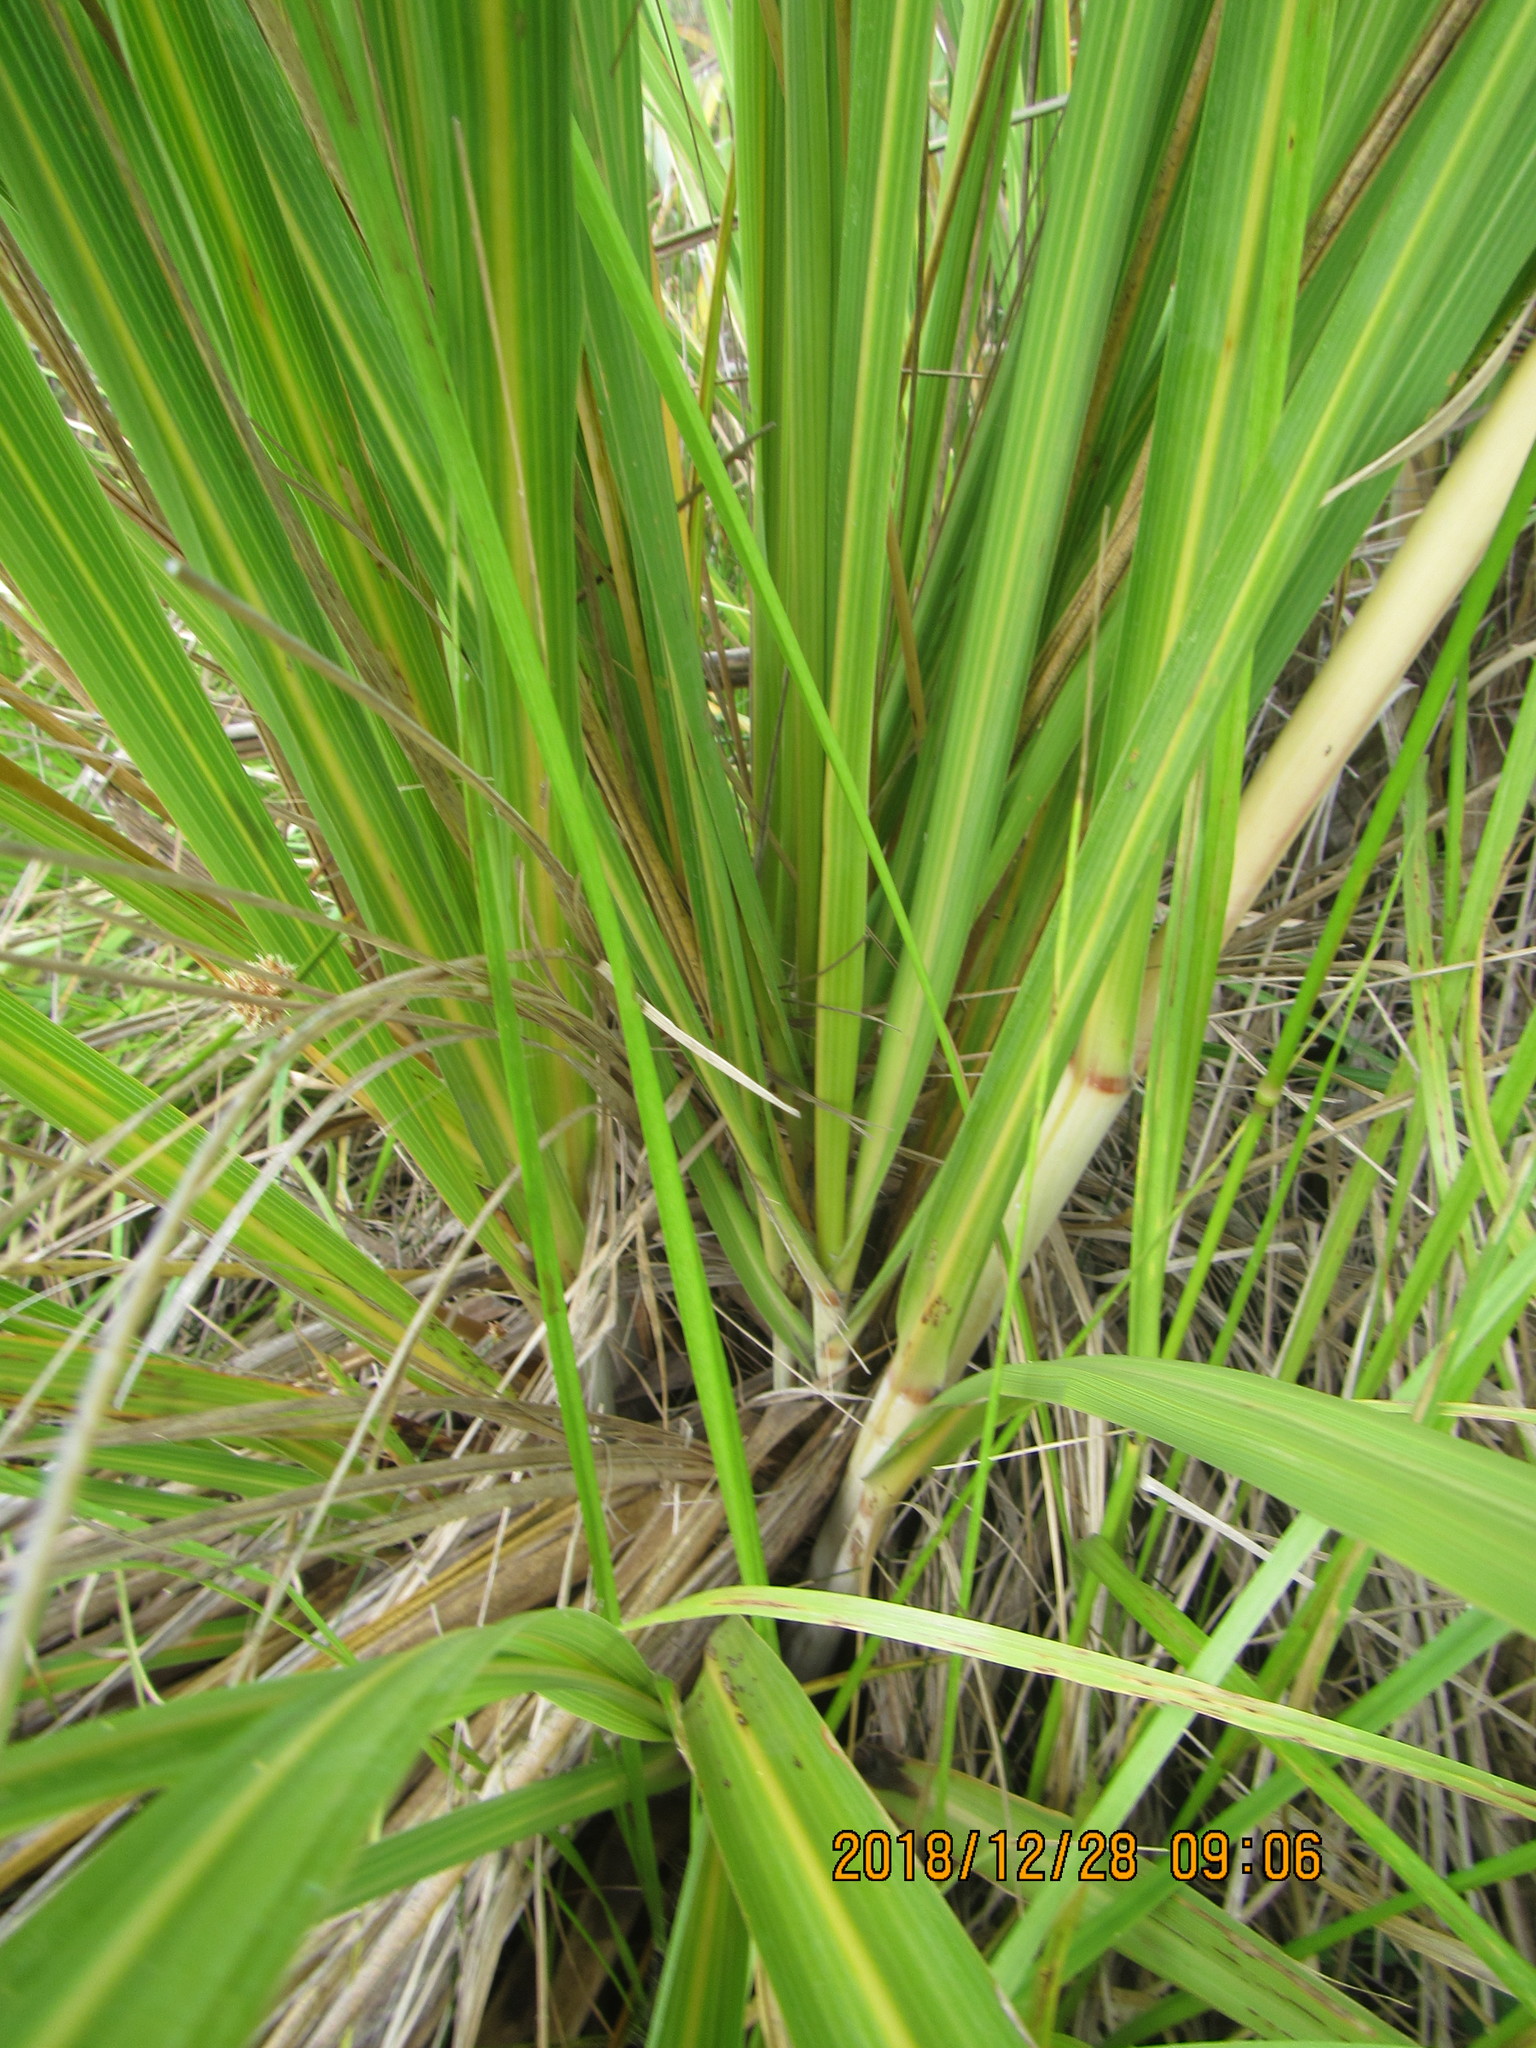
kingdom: Plantae
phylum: Tracheophyta
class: Liliopsida
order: Poales
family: Poaceae
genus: Austroderia
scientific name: Austroderia toetoe
